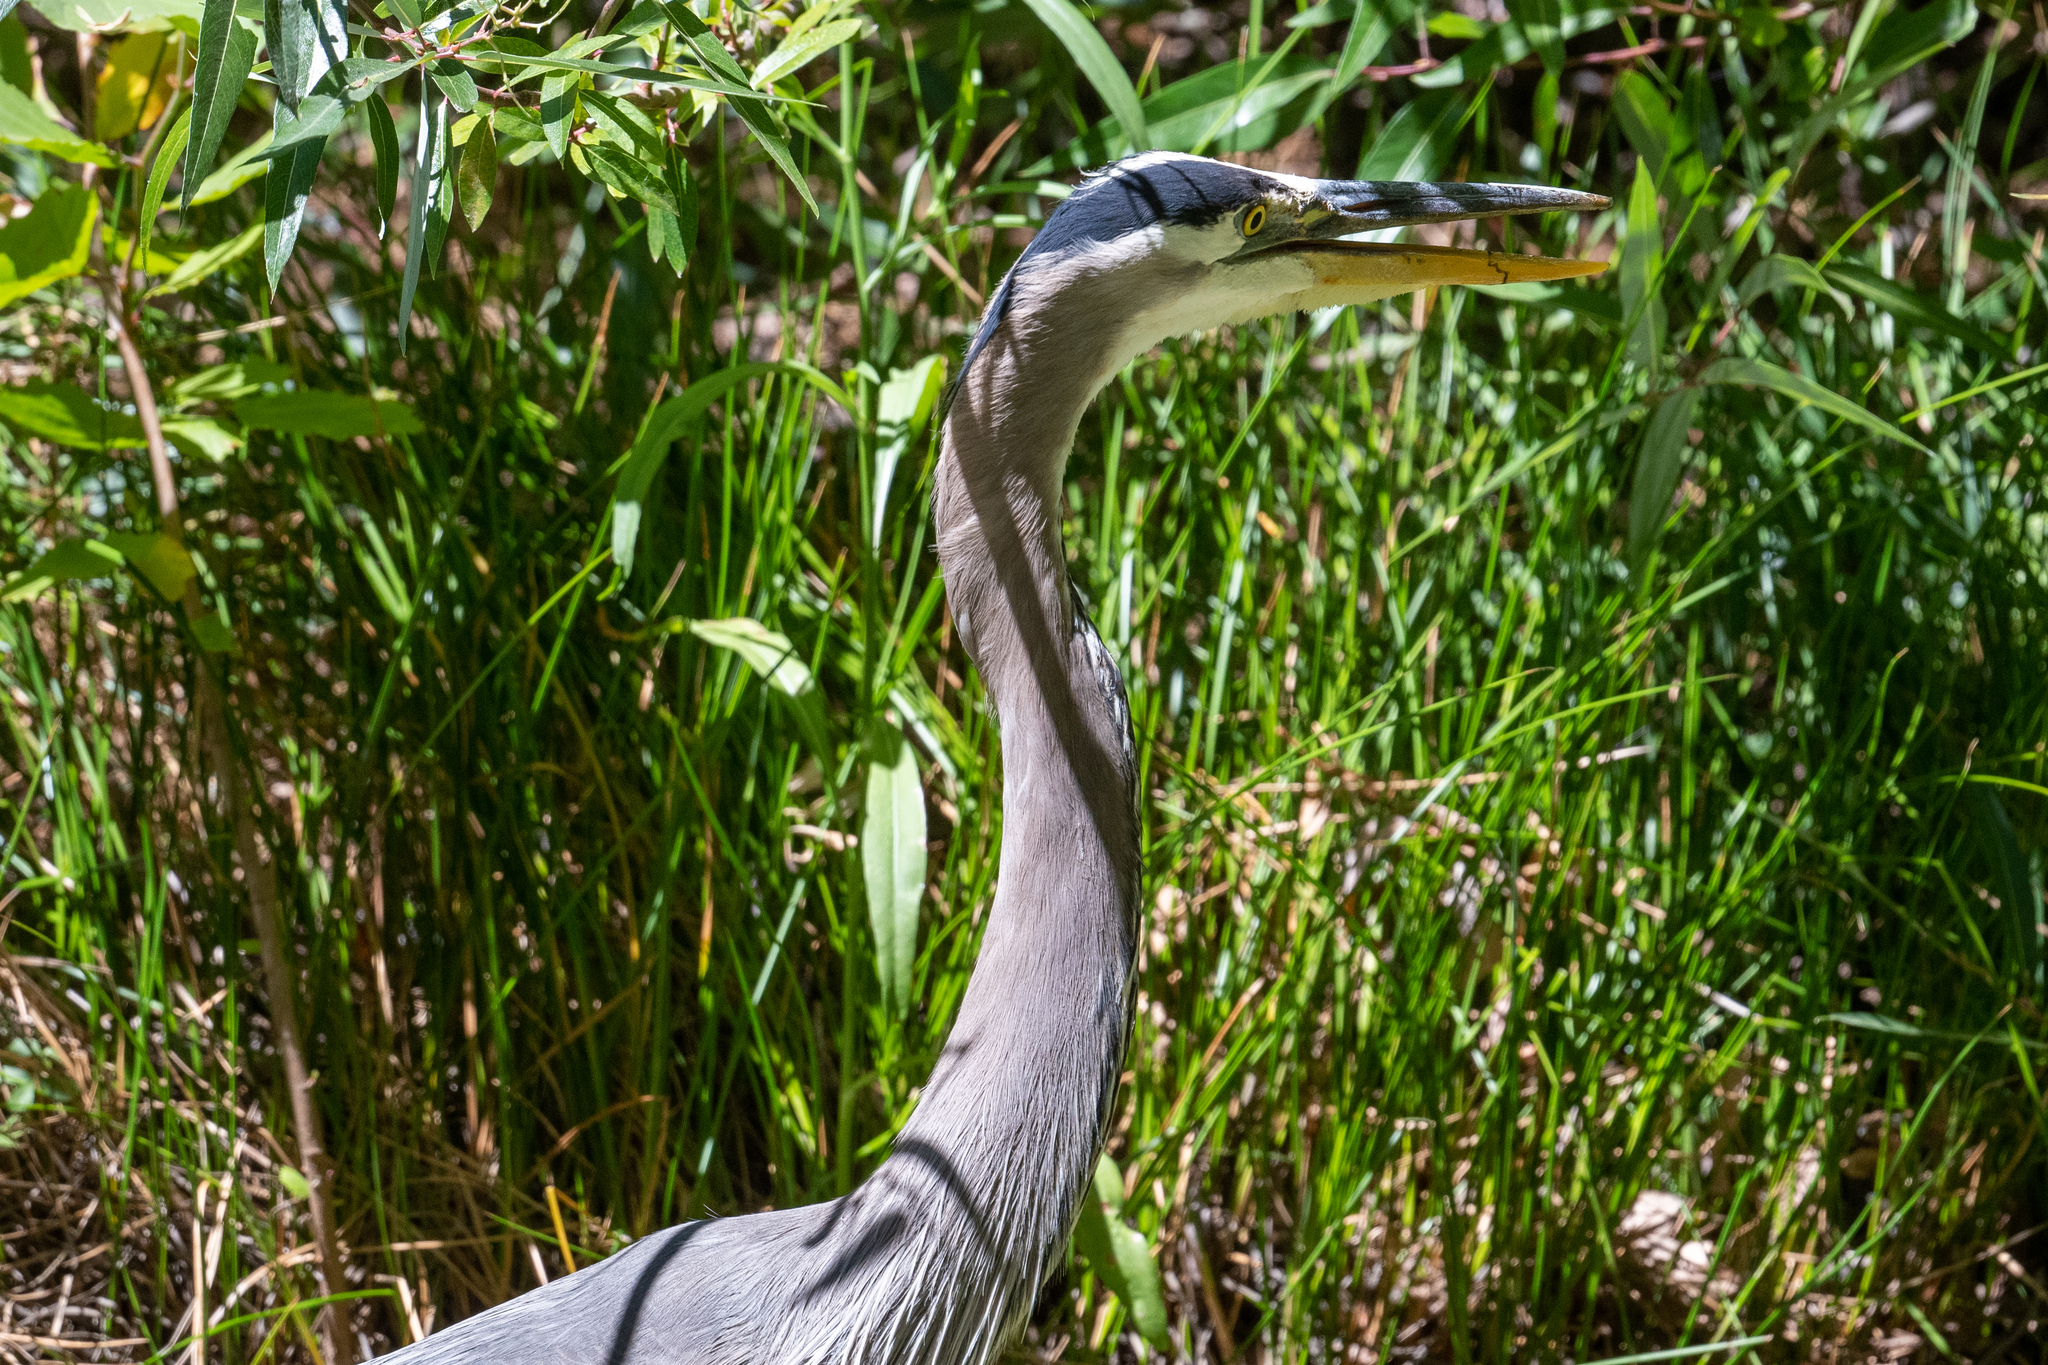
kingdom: Animalia
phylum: Chordata
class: Aves
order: Pelecaniformes
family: Ardeidae
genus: Ardea
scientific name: Ardea herodias
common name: Great blue heron
